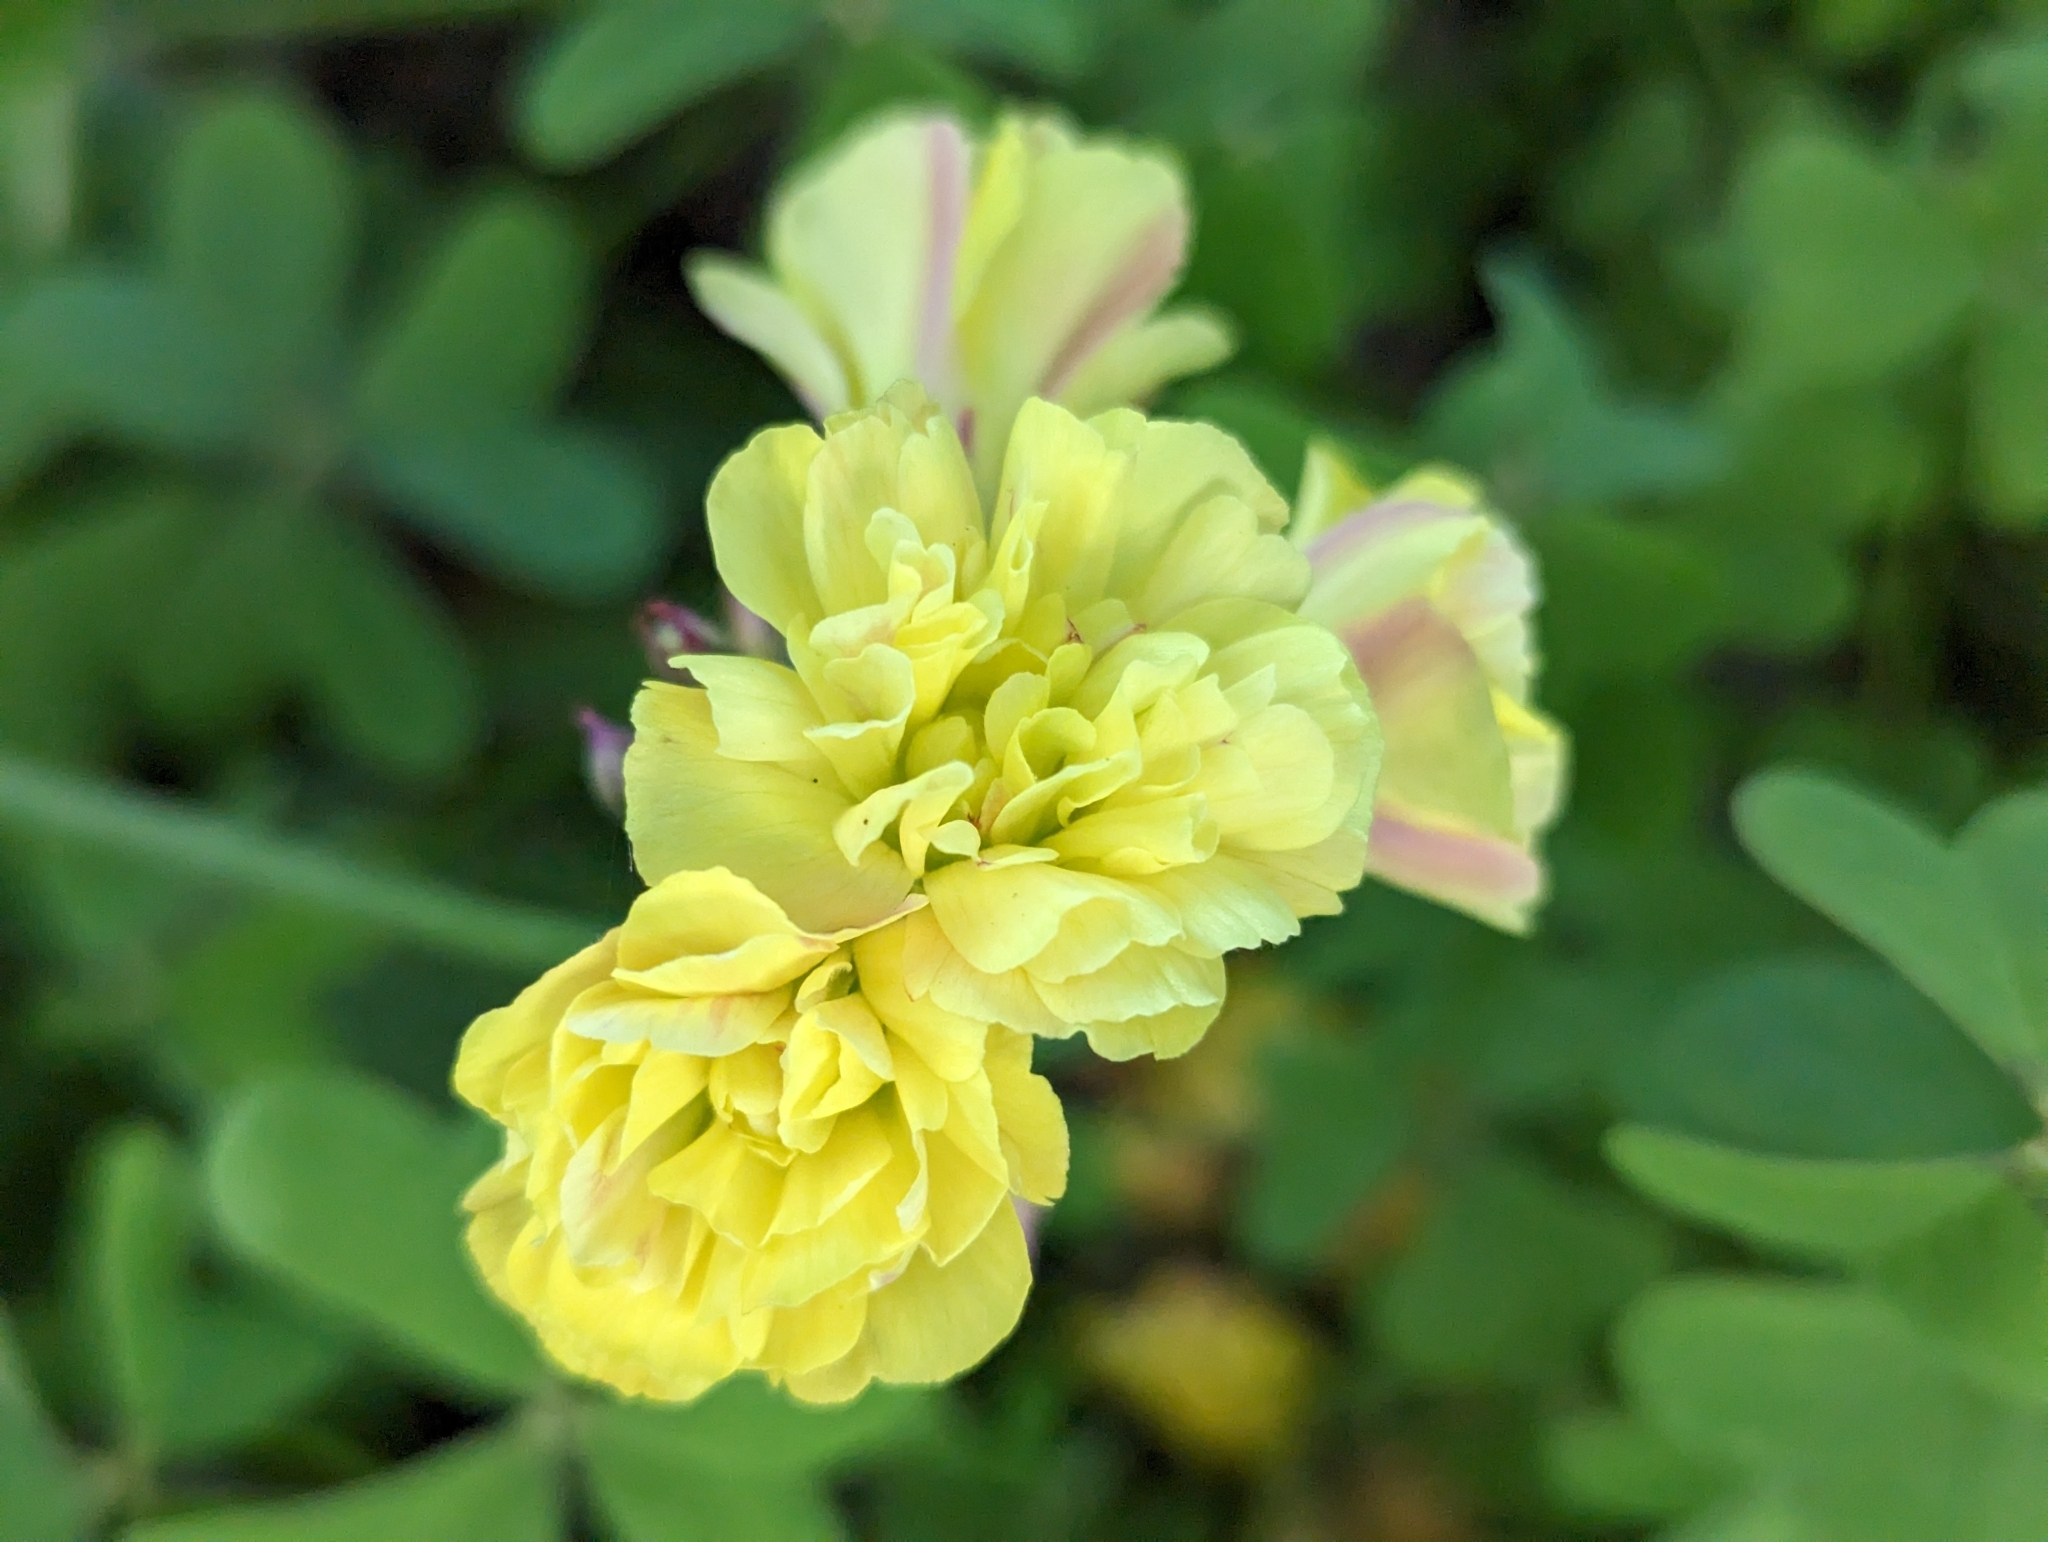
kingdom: Plantae
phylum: Tracheophyta
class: Magnoliopsida
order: Oxalidales
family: Oxalidaceae
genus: Oxalis
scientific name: Oxalis pes-caprae
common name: Bermuda-buttercup
